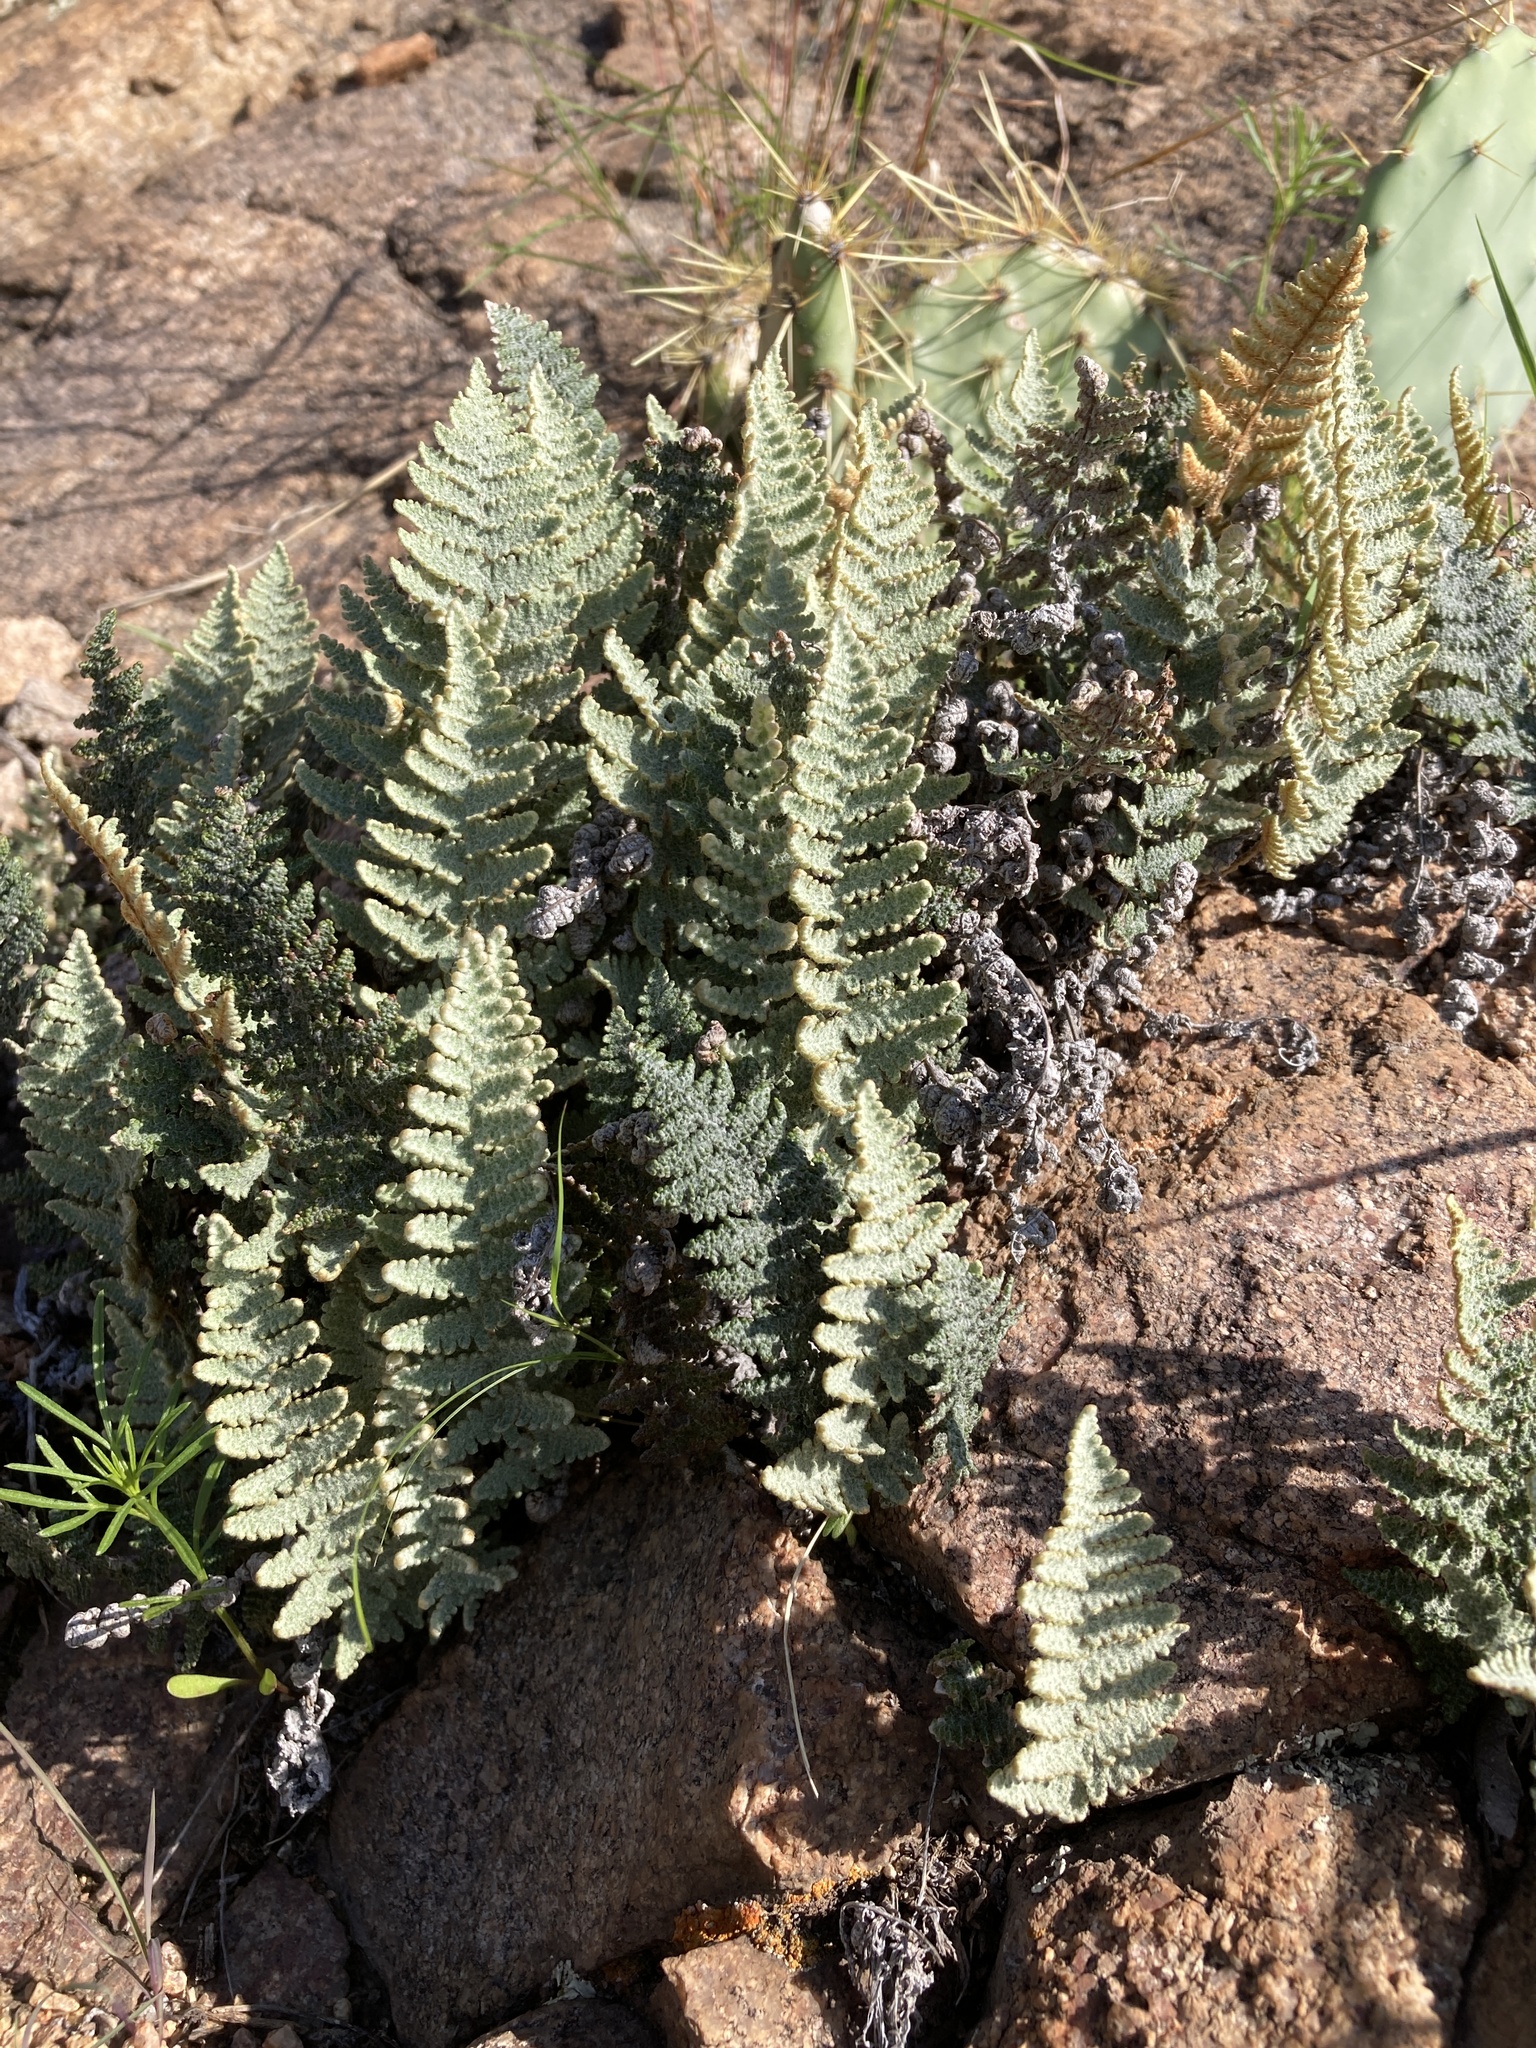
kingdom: Plantae
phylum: Tracheophyta
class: Polypodiopsida
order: Polypodiales
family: Pteridaceae
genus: Myriopteris
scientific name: Myriopteris lindheimeri
